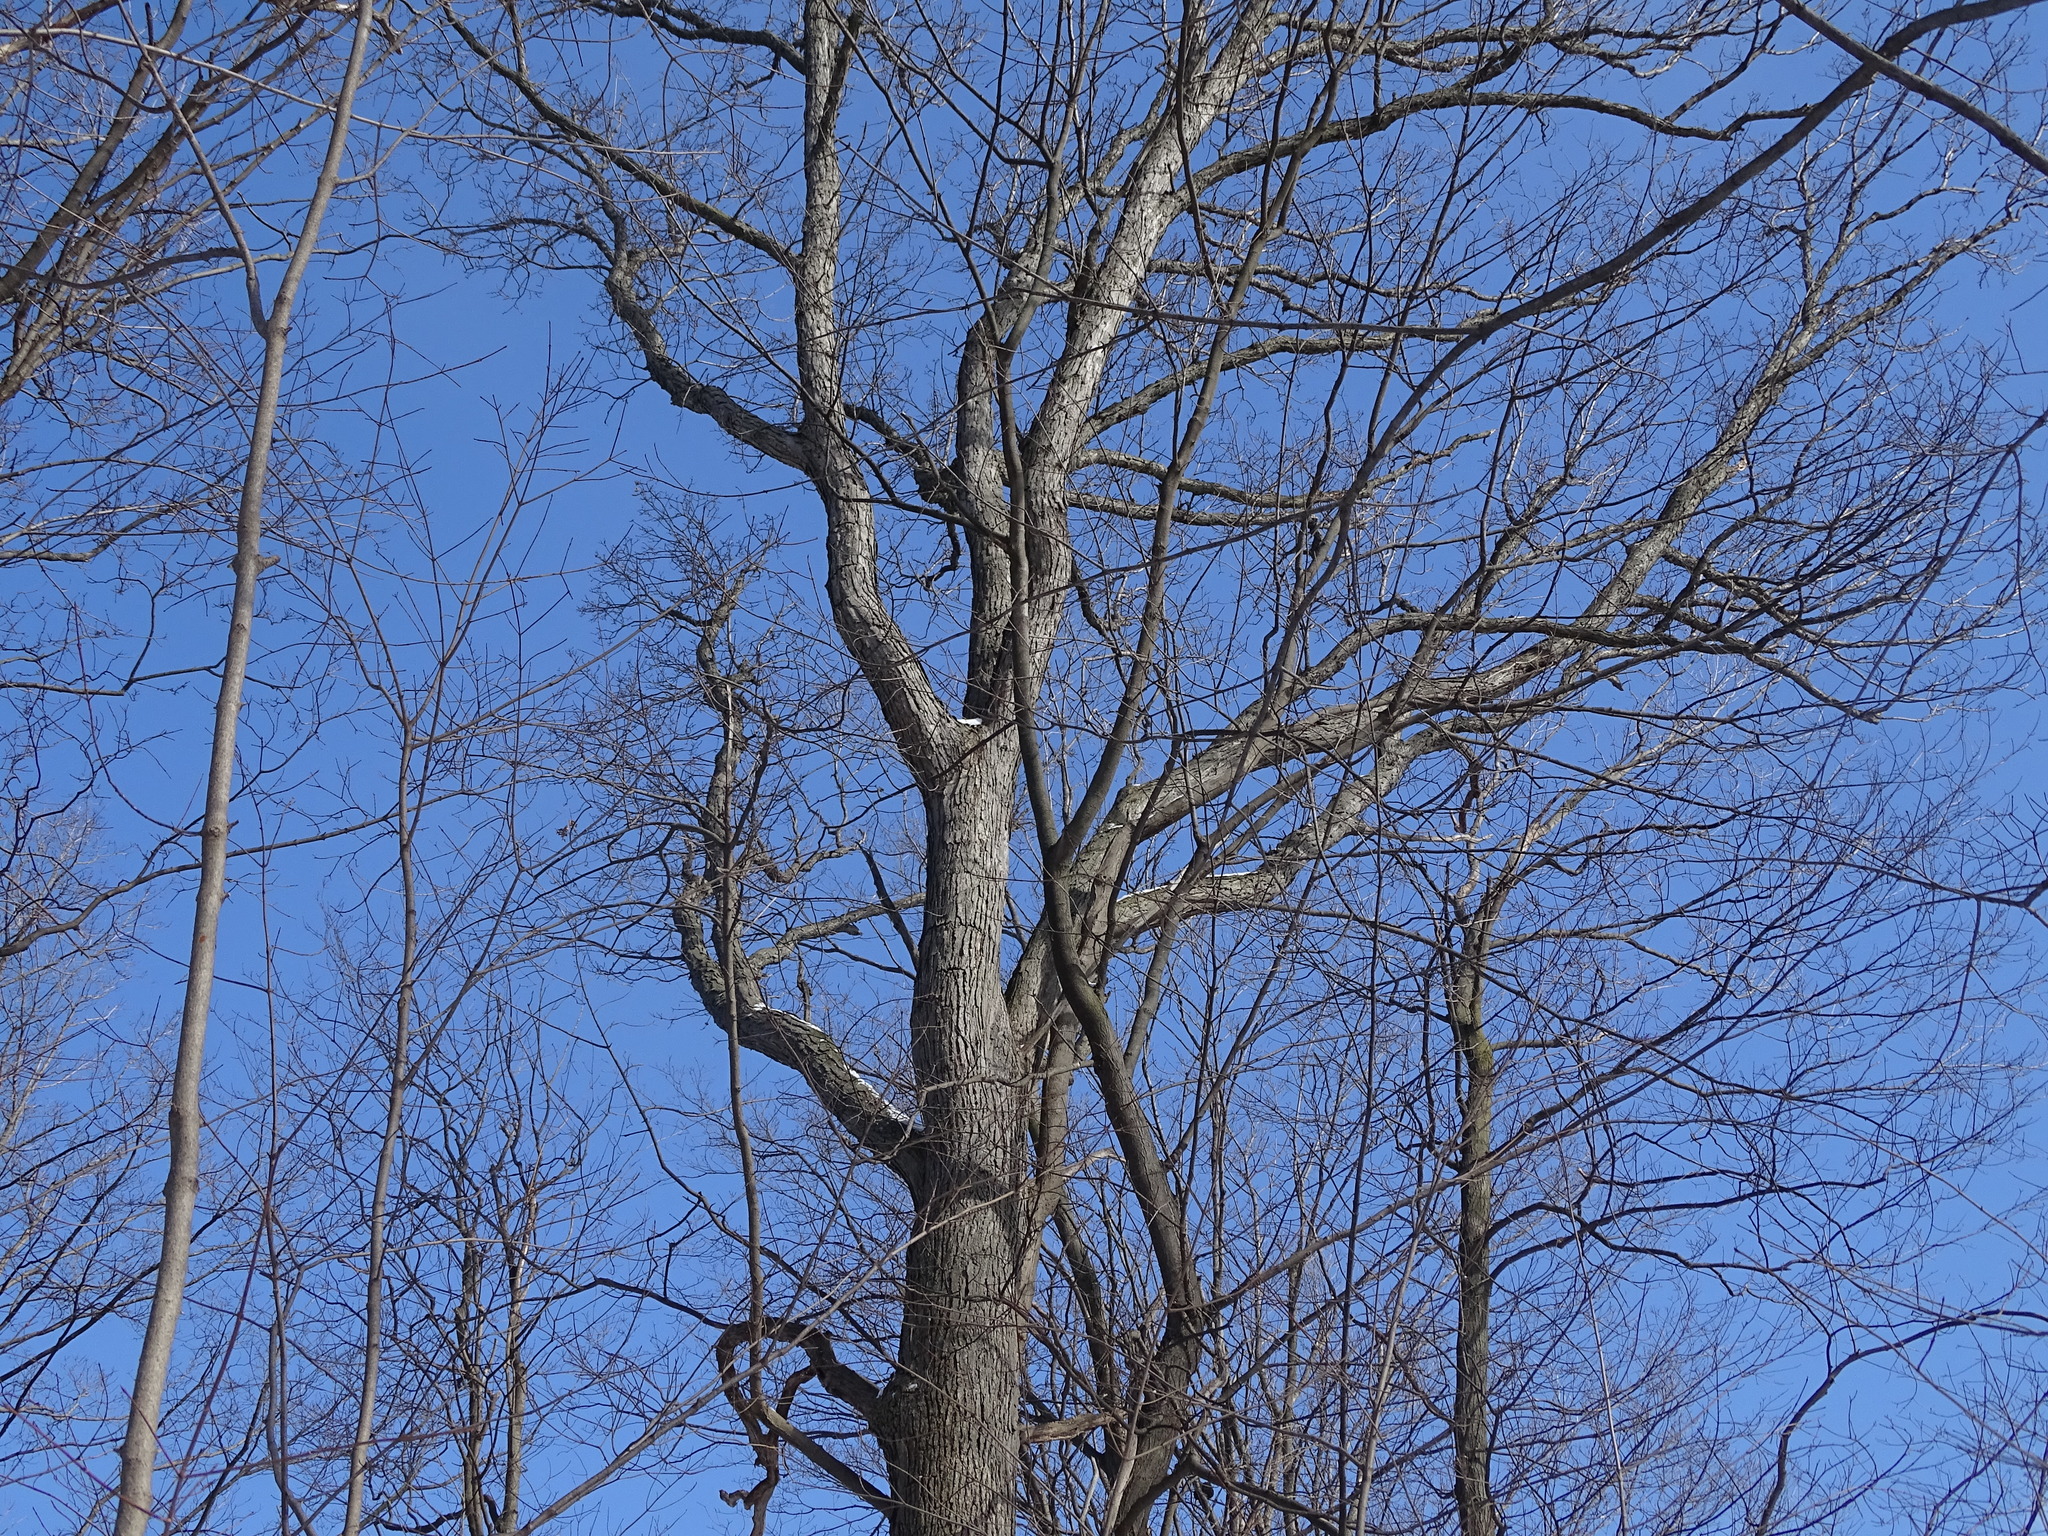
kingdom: Plantae
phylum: Tracheophyta
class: Magnoliopsida
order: Fagales
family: Fagaceae
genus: Quercus
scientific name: Quercus alba
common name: White oak
